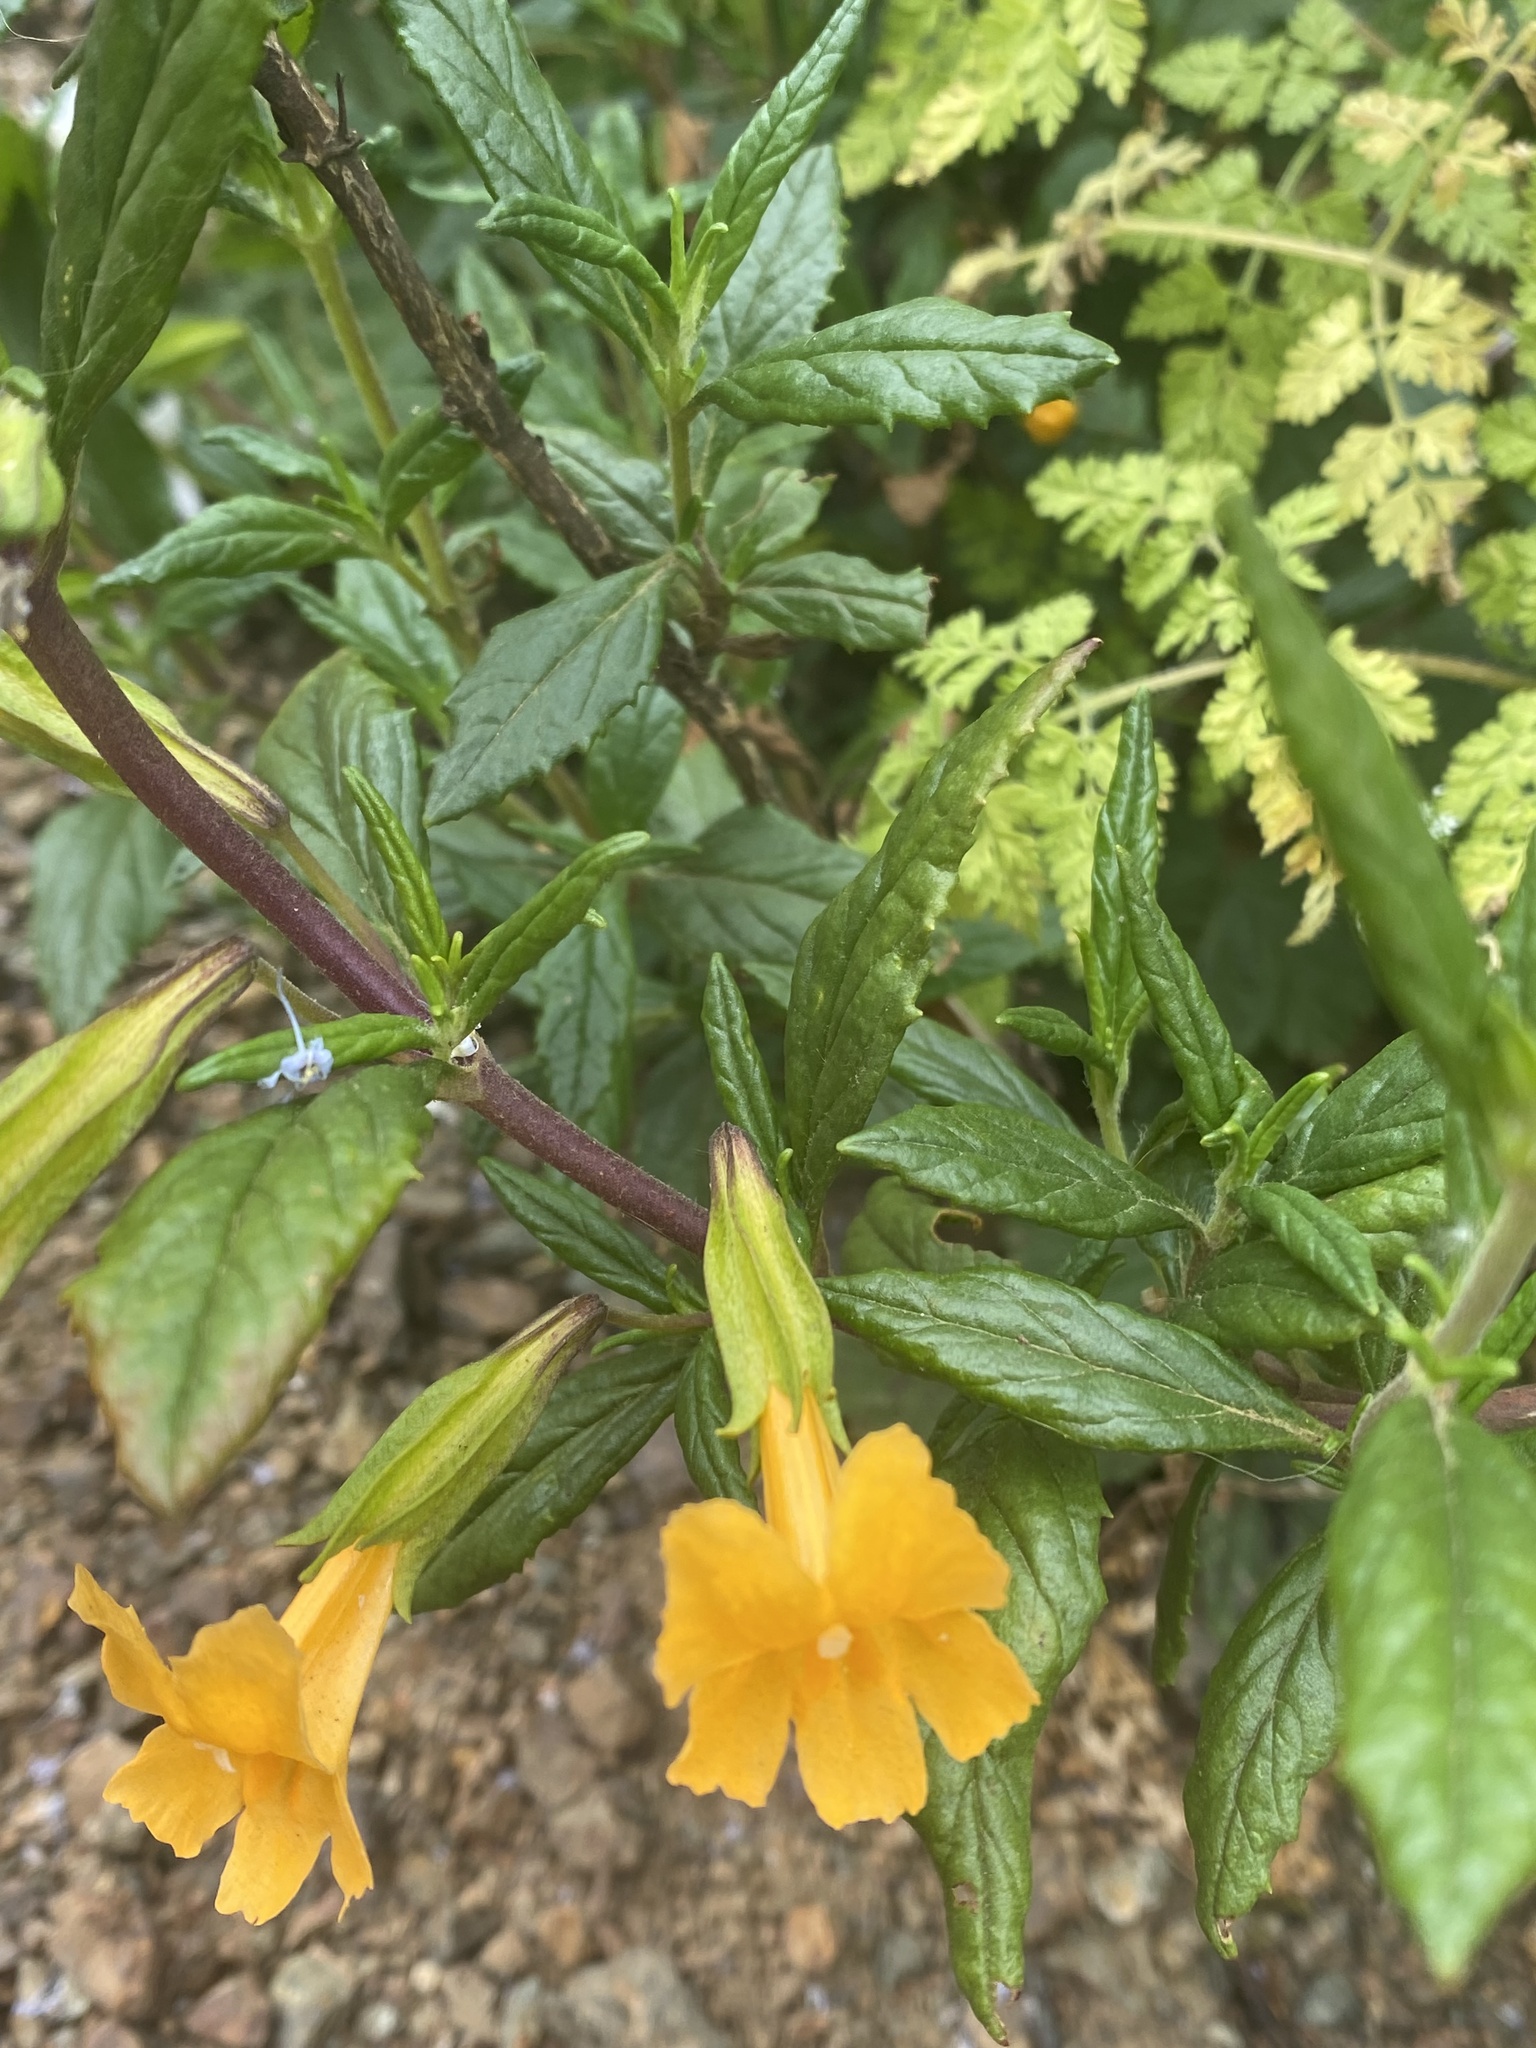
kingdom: Plantae
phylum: Tracheophyta
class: Magnoliopsida
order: Lamiales
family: Phrymaceae
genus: Diplacus
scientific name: Diplacus aurantiacus
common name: Bush monkey-flower
